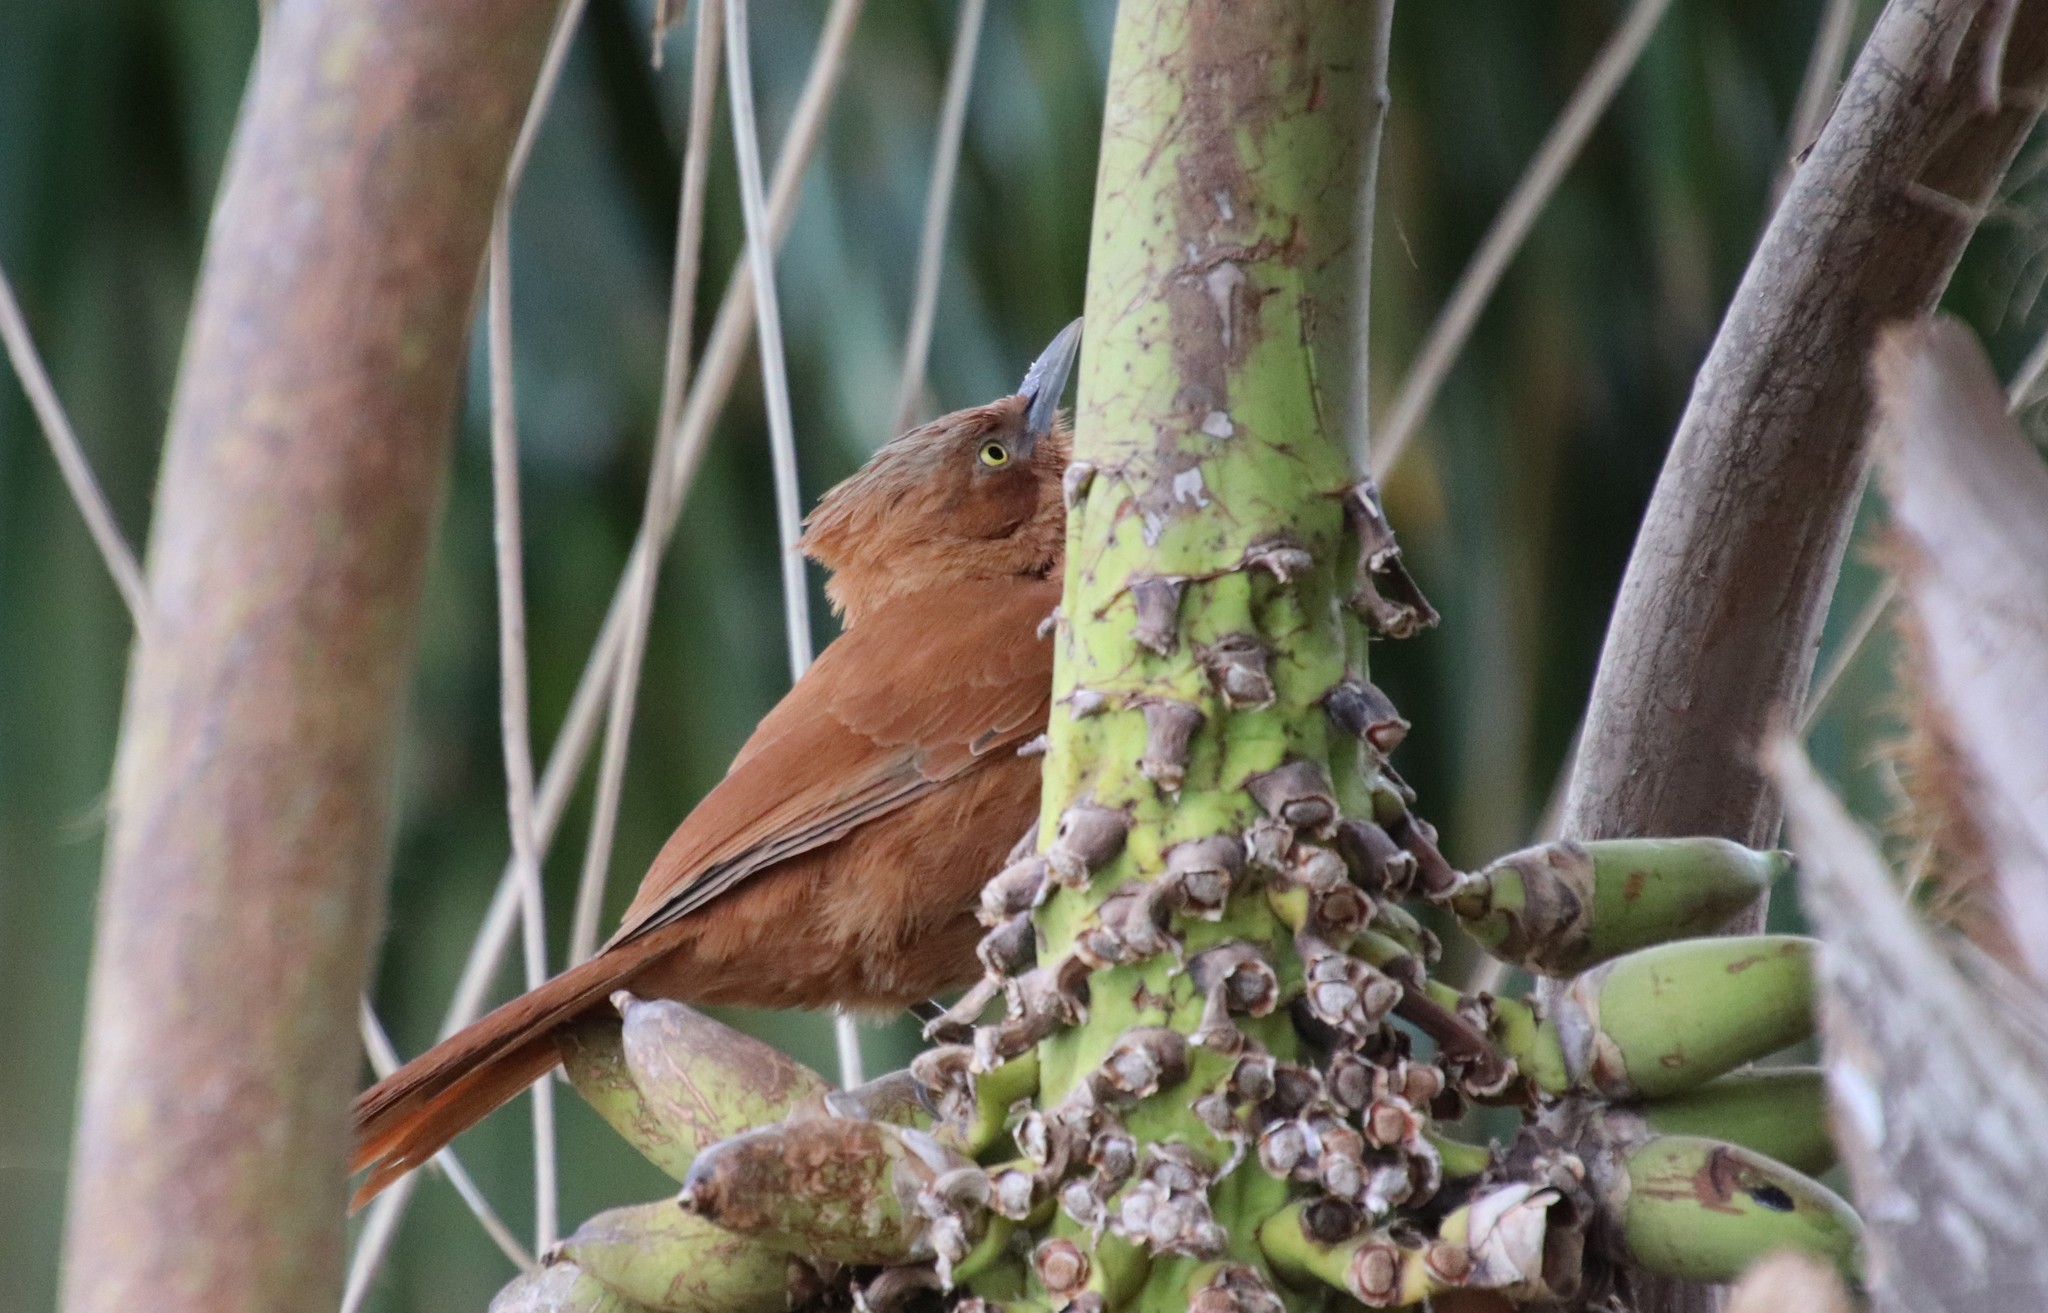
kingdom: Animalia
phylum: Chordata
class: Aves
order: Passeriformes
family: Furnariidae
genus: Pseudoseisura
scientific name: Pseudoseisura unirufa
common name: Grey-crested cacholote
